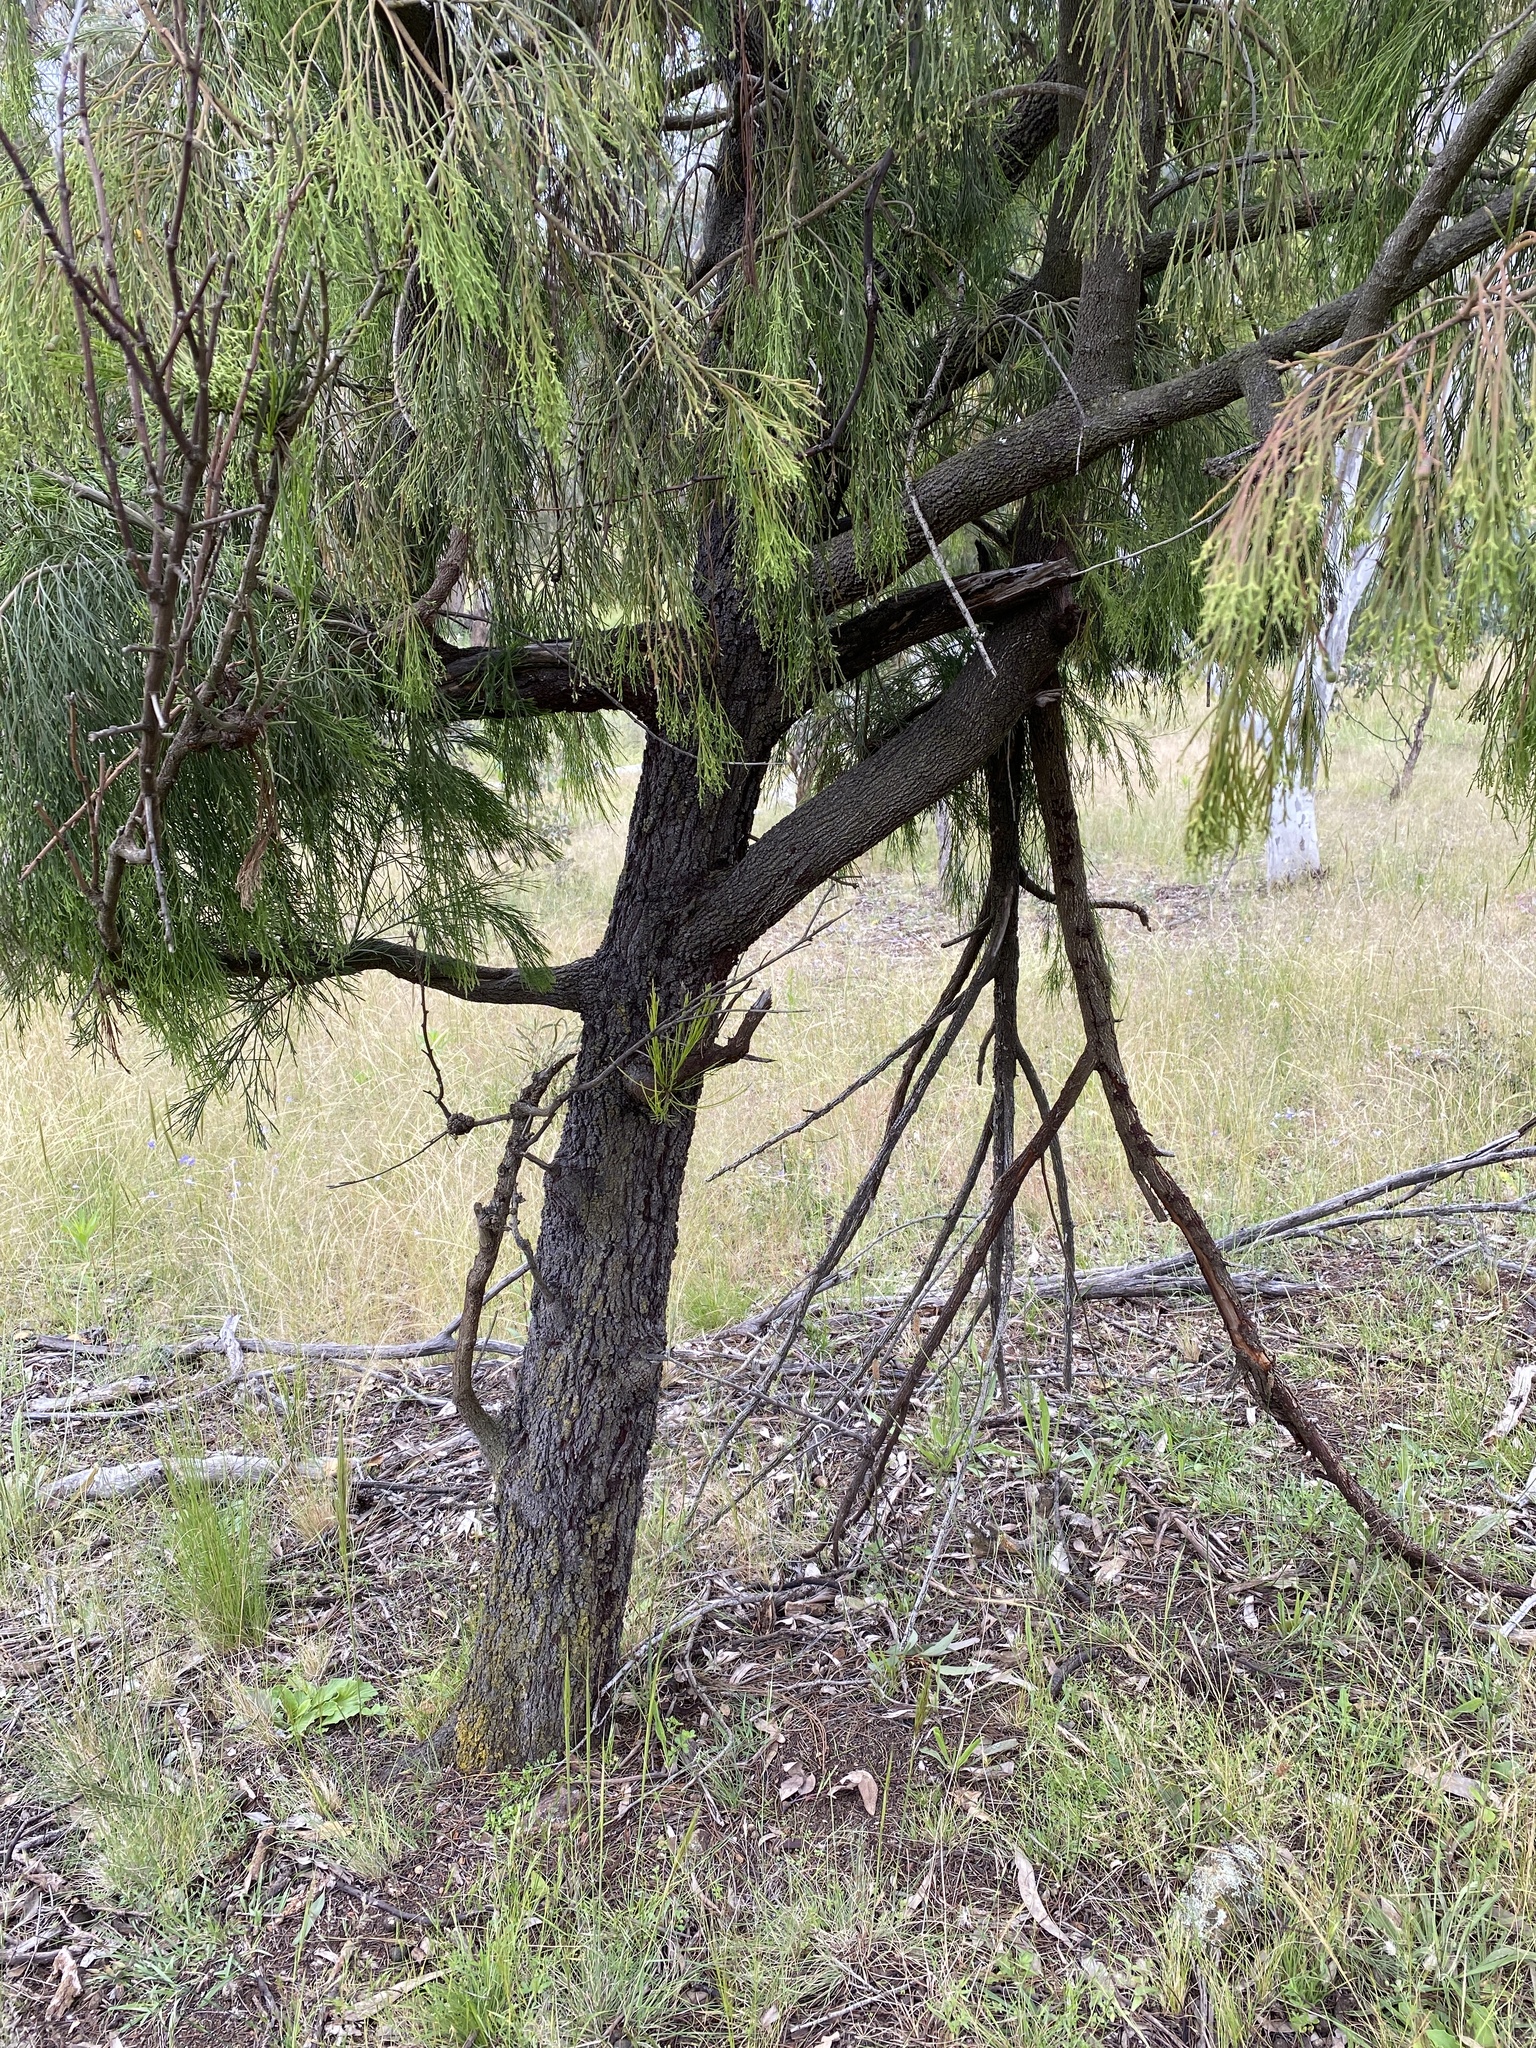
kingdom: Plantae
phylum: Tracheophyta
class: Magnoliopsida
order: Santalales
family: Santalaceae
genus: Exocarpos
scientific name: Exocarpos cupressiformis
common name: Cherry ballart
